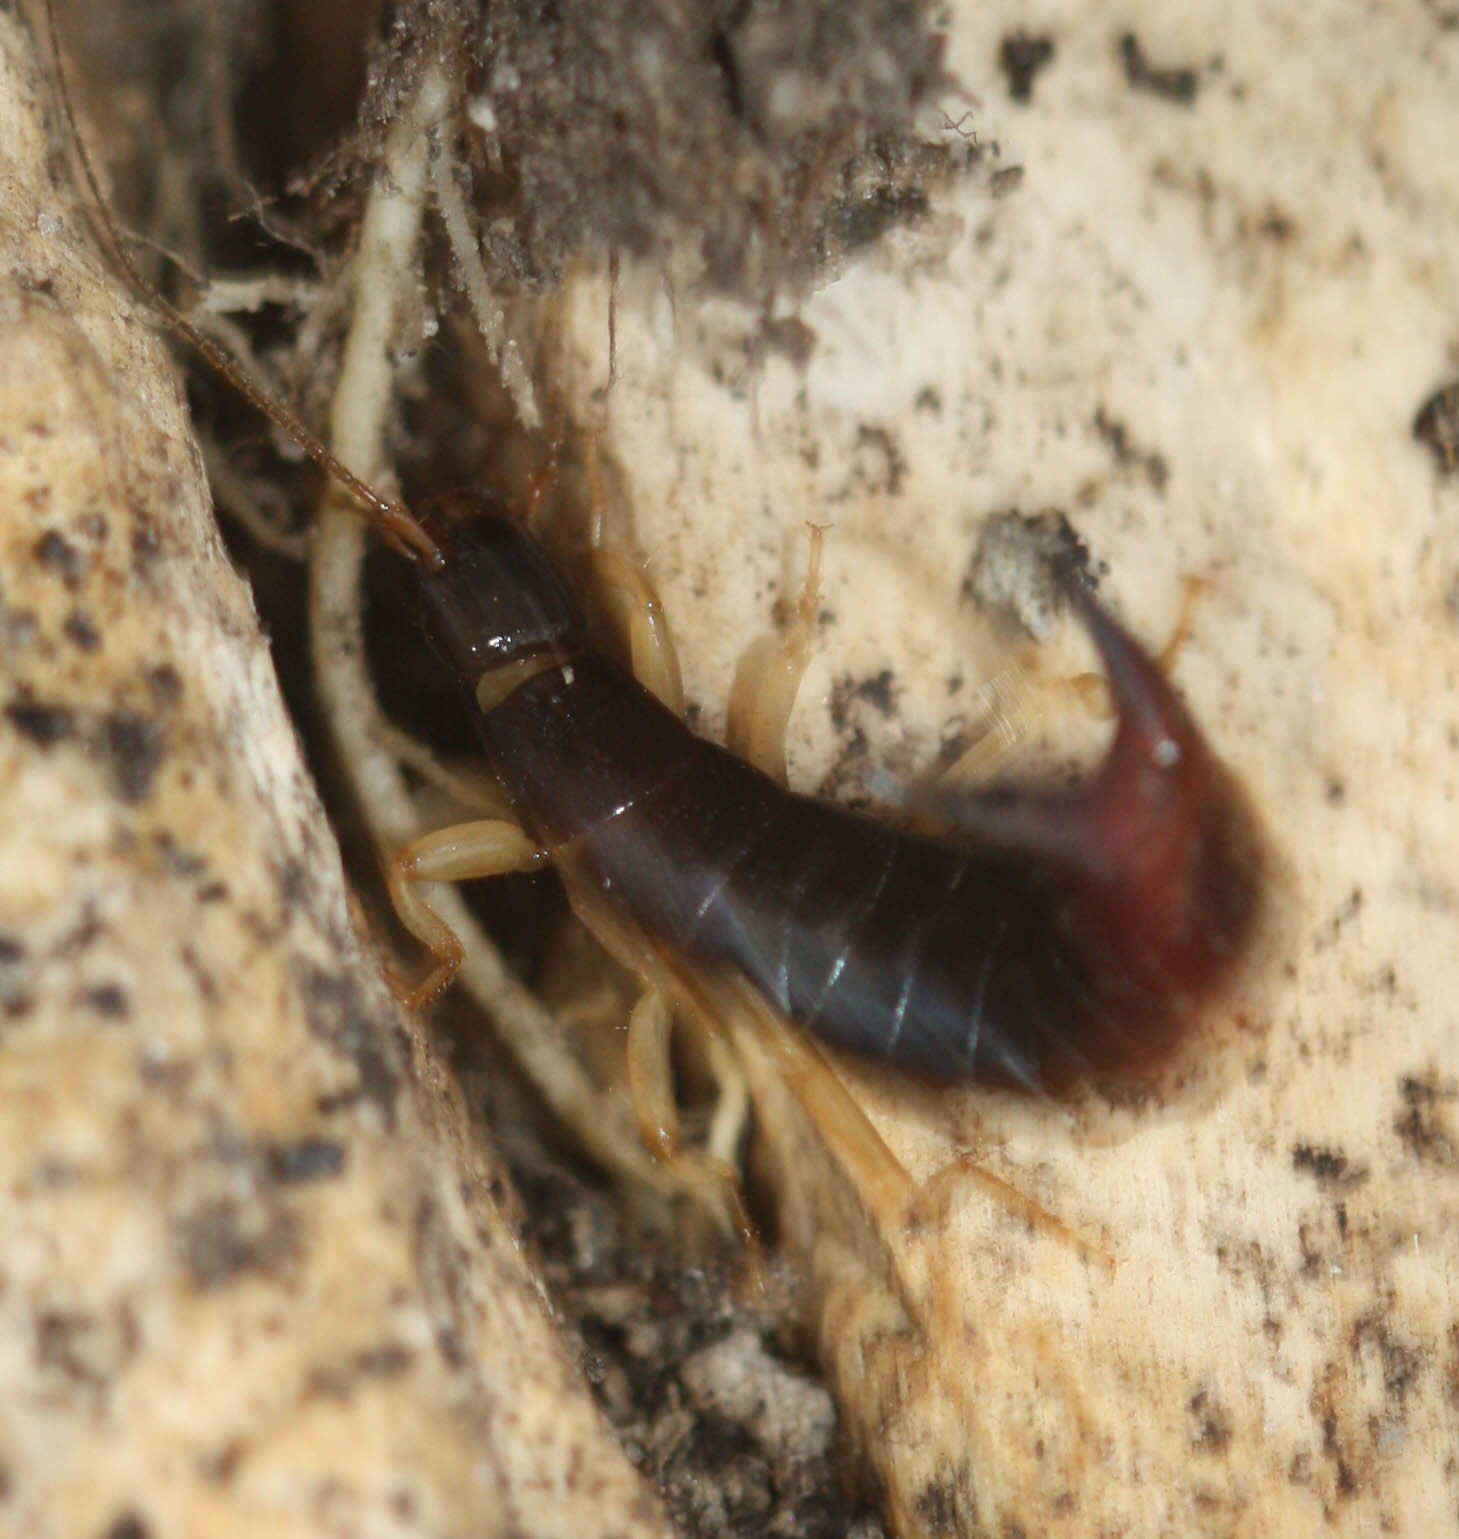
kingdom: Animalia
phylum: Arthropoda
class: Insecta
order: Dermaptera
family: Anisolabididae
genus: Anisolabis
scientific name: Anisolabis maritima
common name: Maritime earwig
